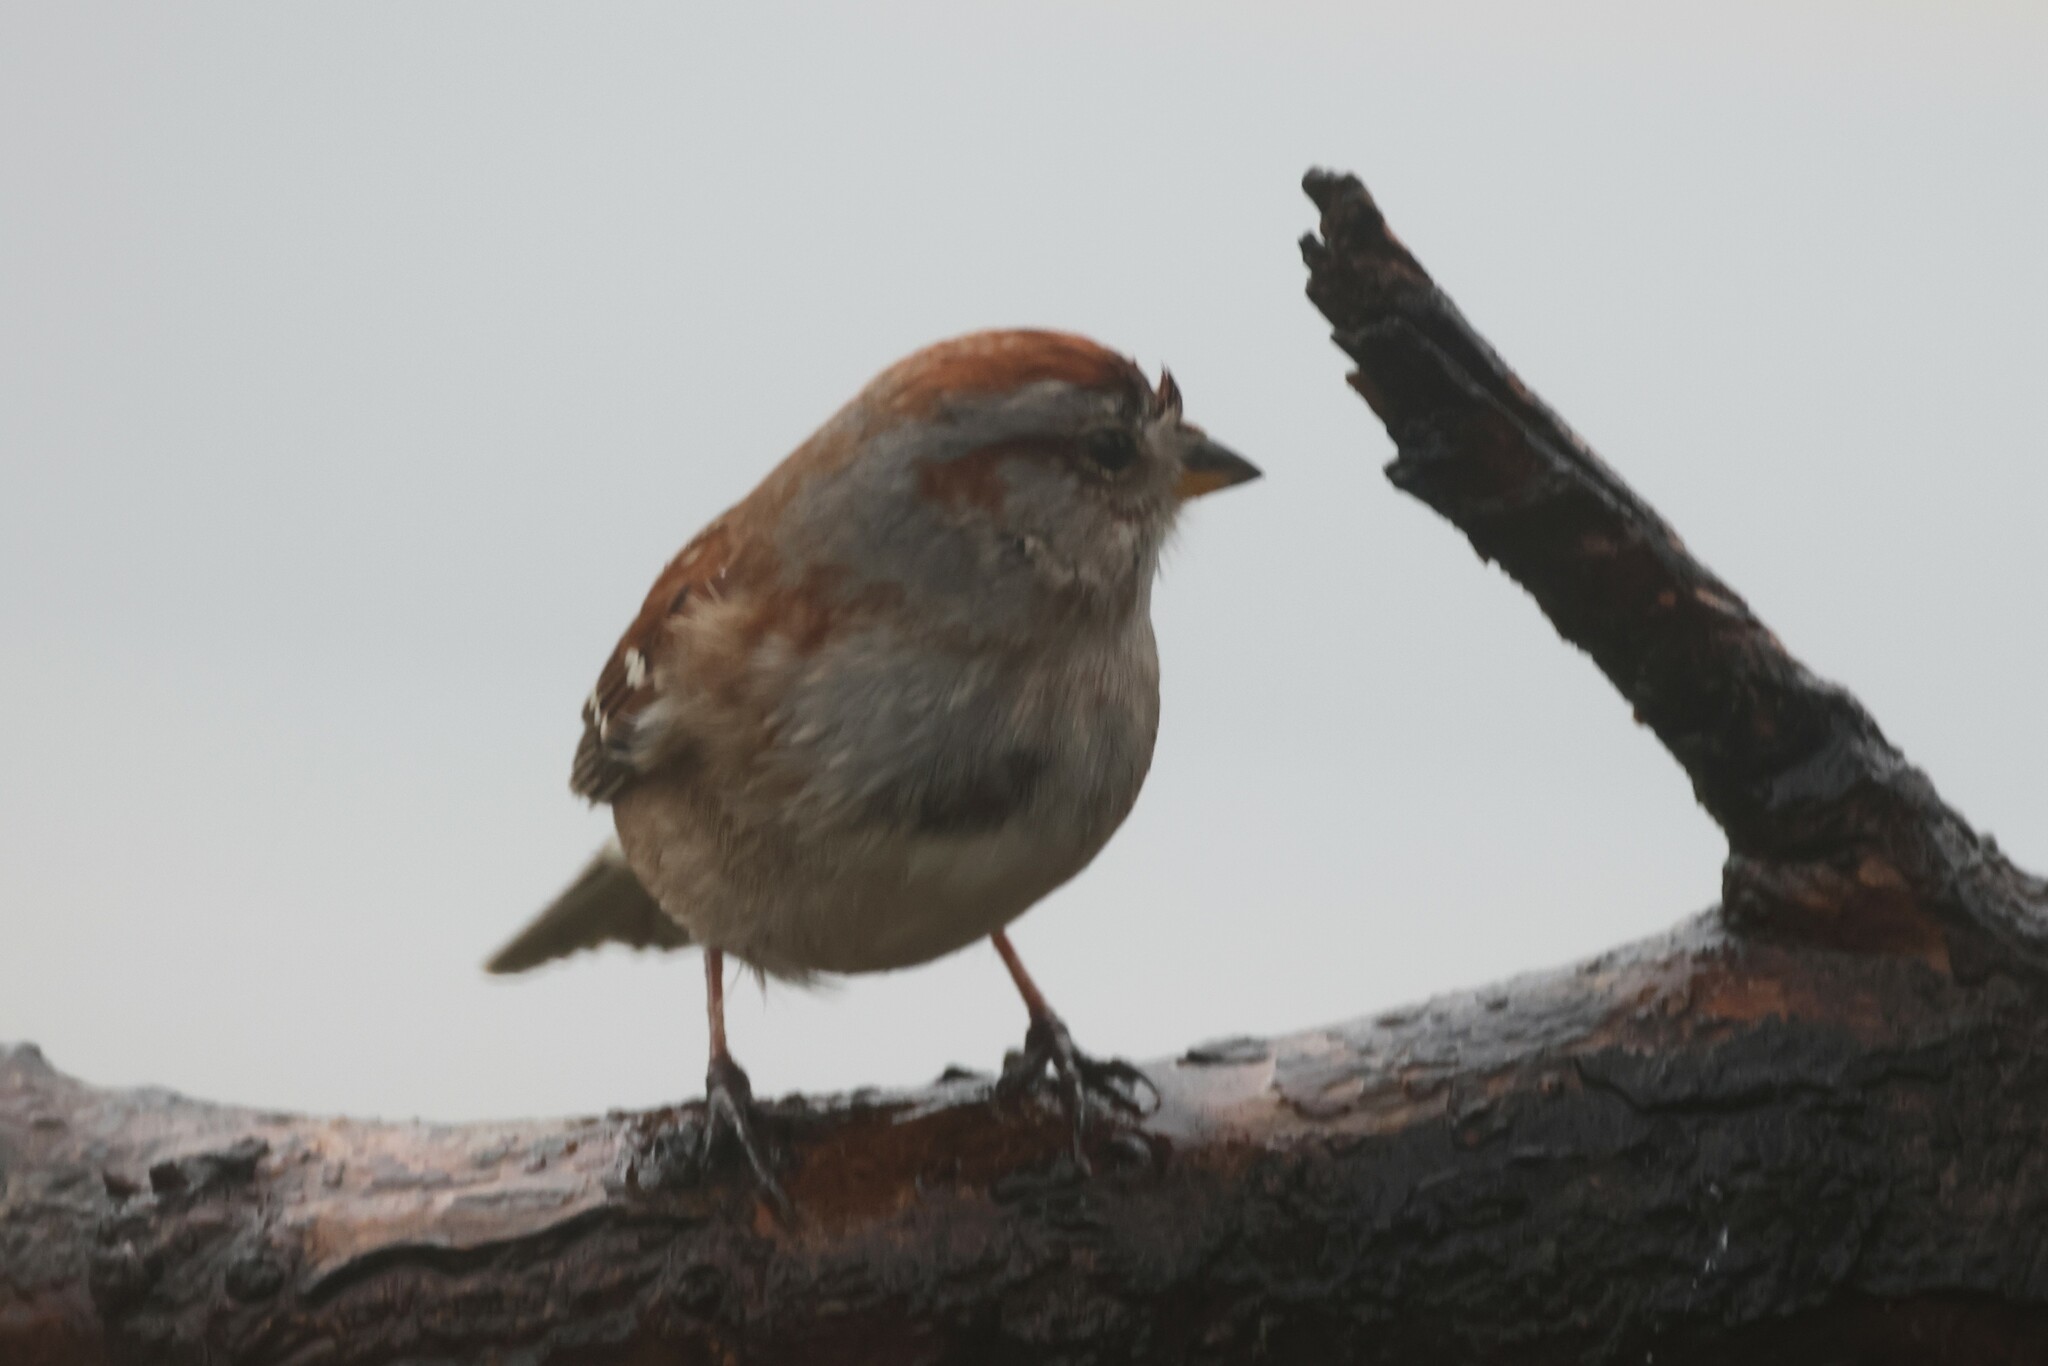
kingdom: Animalia
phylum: Chordata
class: Aves
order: Passeriformes
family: Passerellidae
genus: Spizelloides
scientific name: Spizelloides arborea
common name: American tree sparrow
